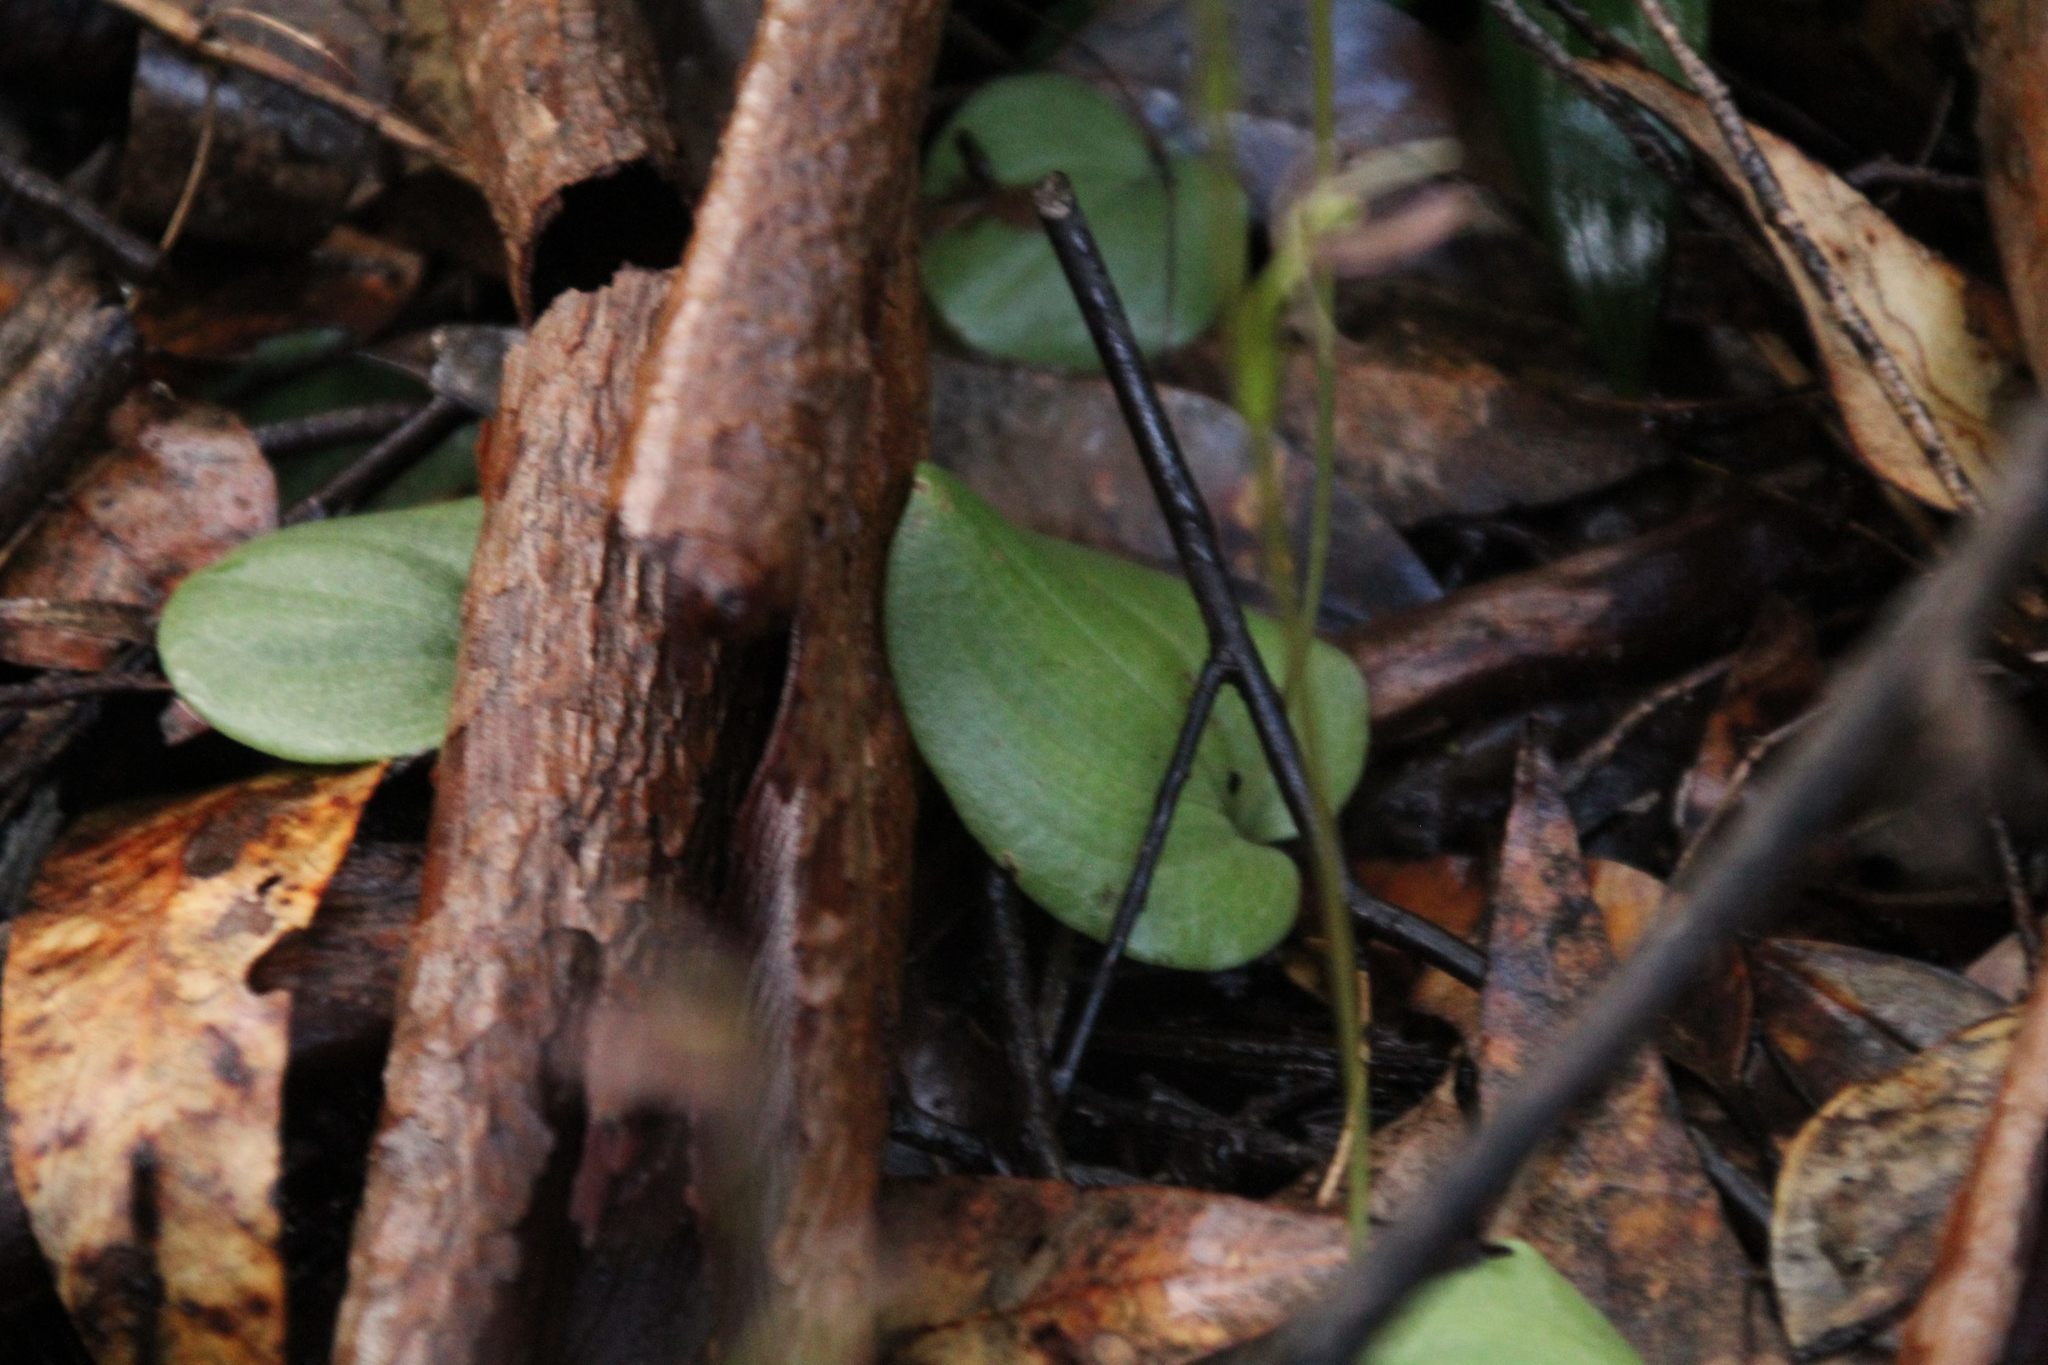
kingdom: Plantae
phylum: Tracheophyta
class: Liliopsida
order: Asparagales
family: Orchidaceae
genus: Cyrtostylis
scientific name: Cyrtostylis huegelii
